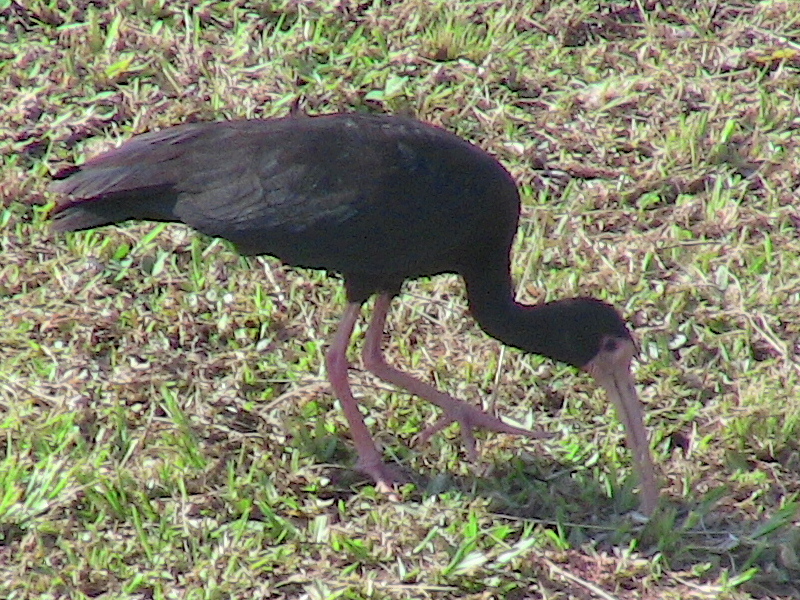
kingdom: Animalia
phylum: Chordata
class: Aves
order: Pelecaniformes
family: Threskiornithidae
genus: Phimosus
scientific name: Phimosus infuscatus
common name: Bare-faced ibis
